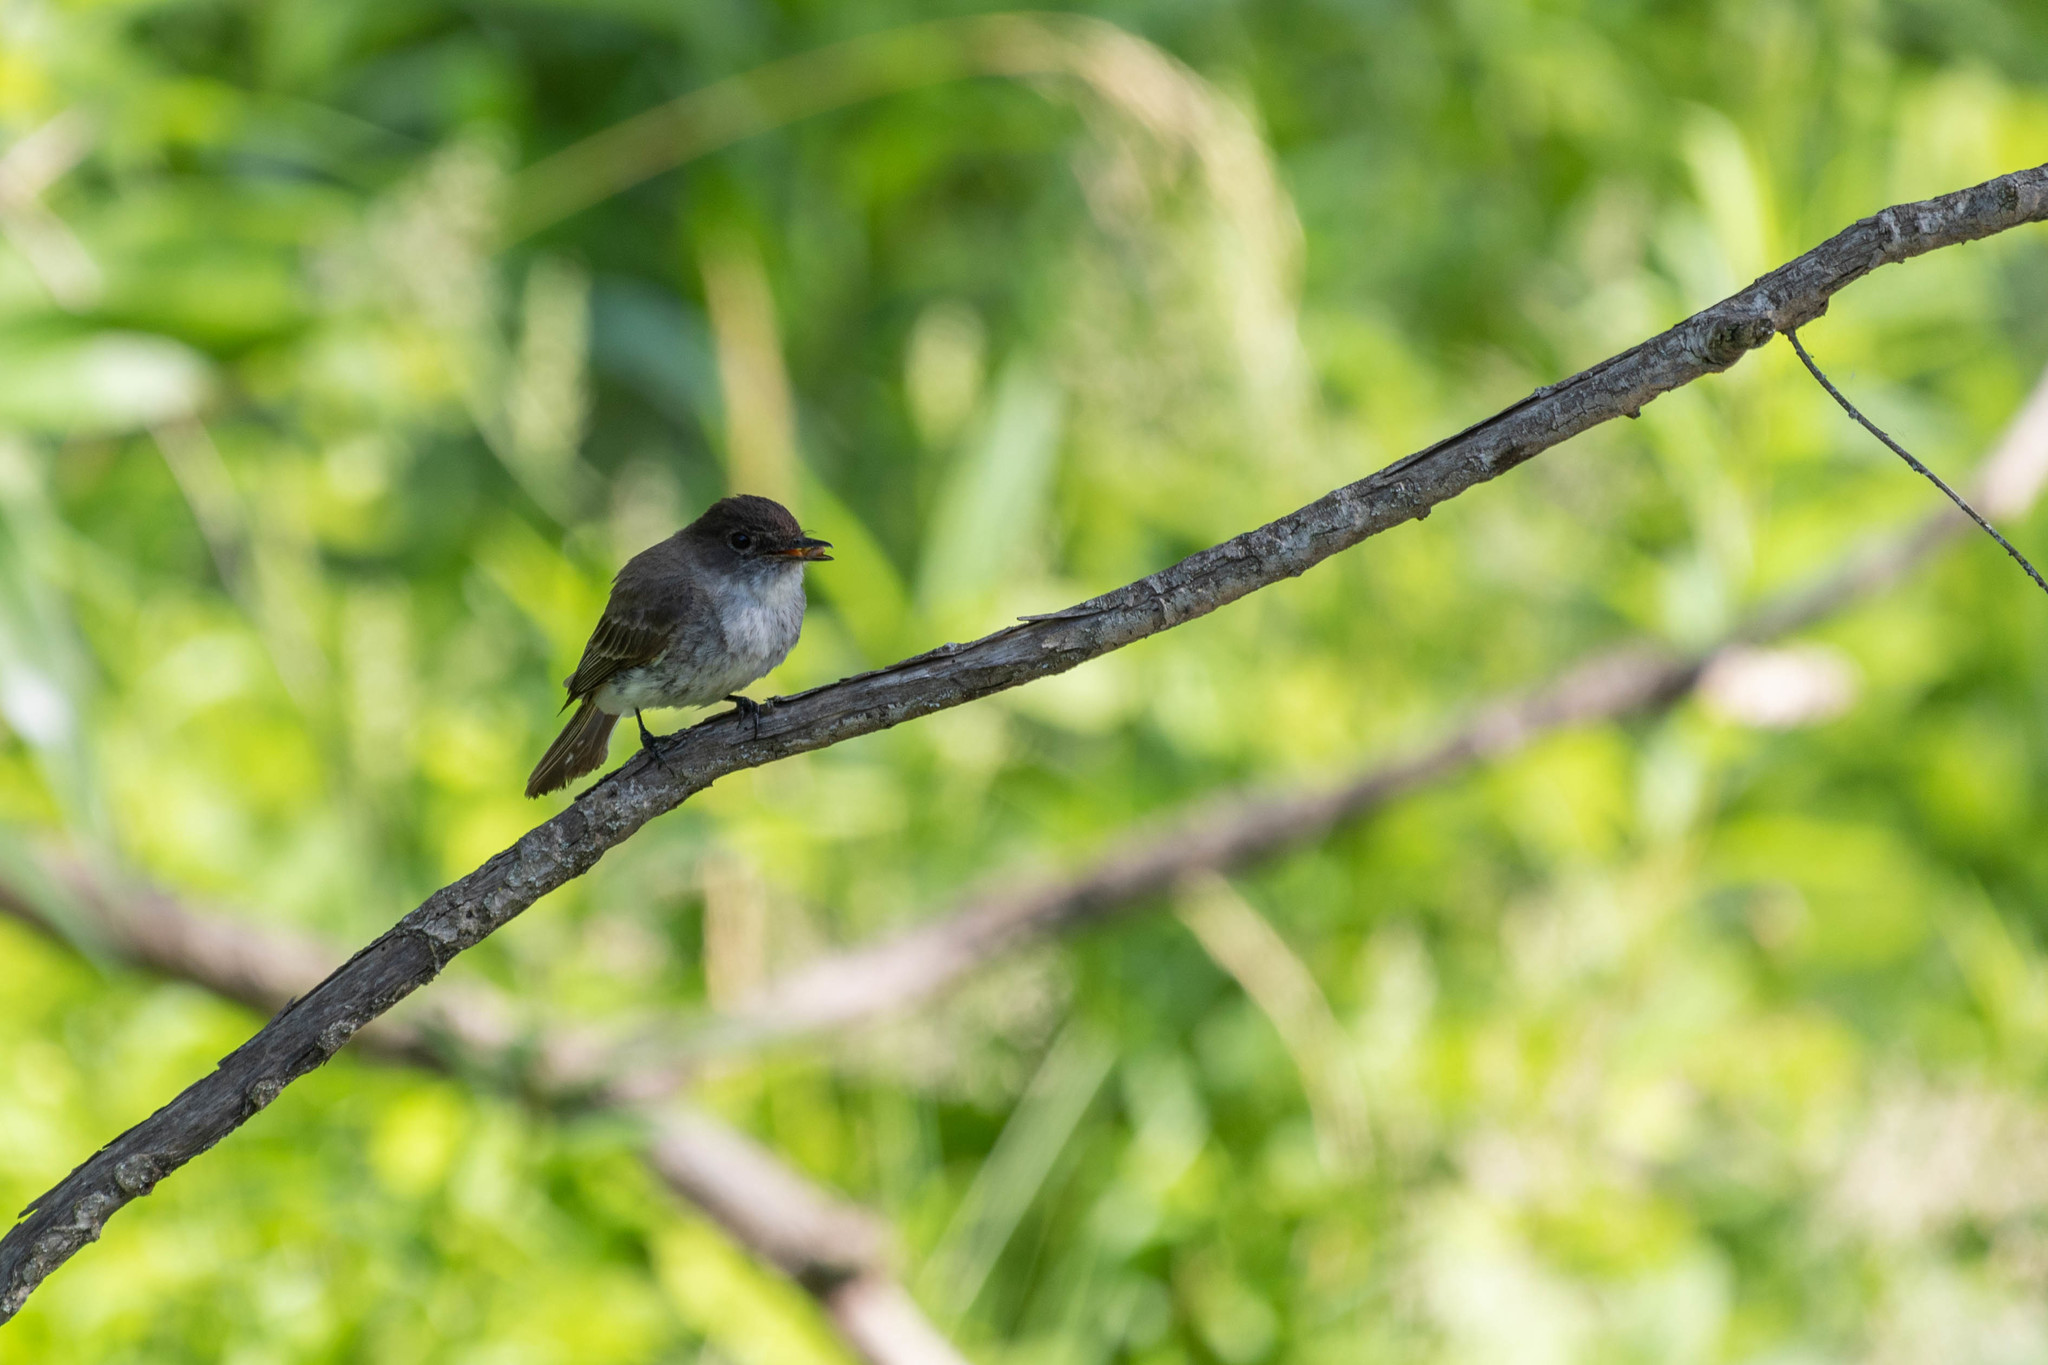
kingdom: Animalia
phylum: Chordata
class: Aves
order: Passeriformes
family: Tyrannidae
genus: Sayornis
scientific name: Sayornis phoebe
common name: Eastern phoebe
